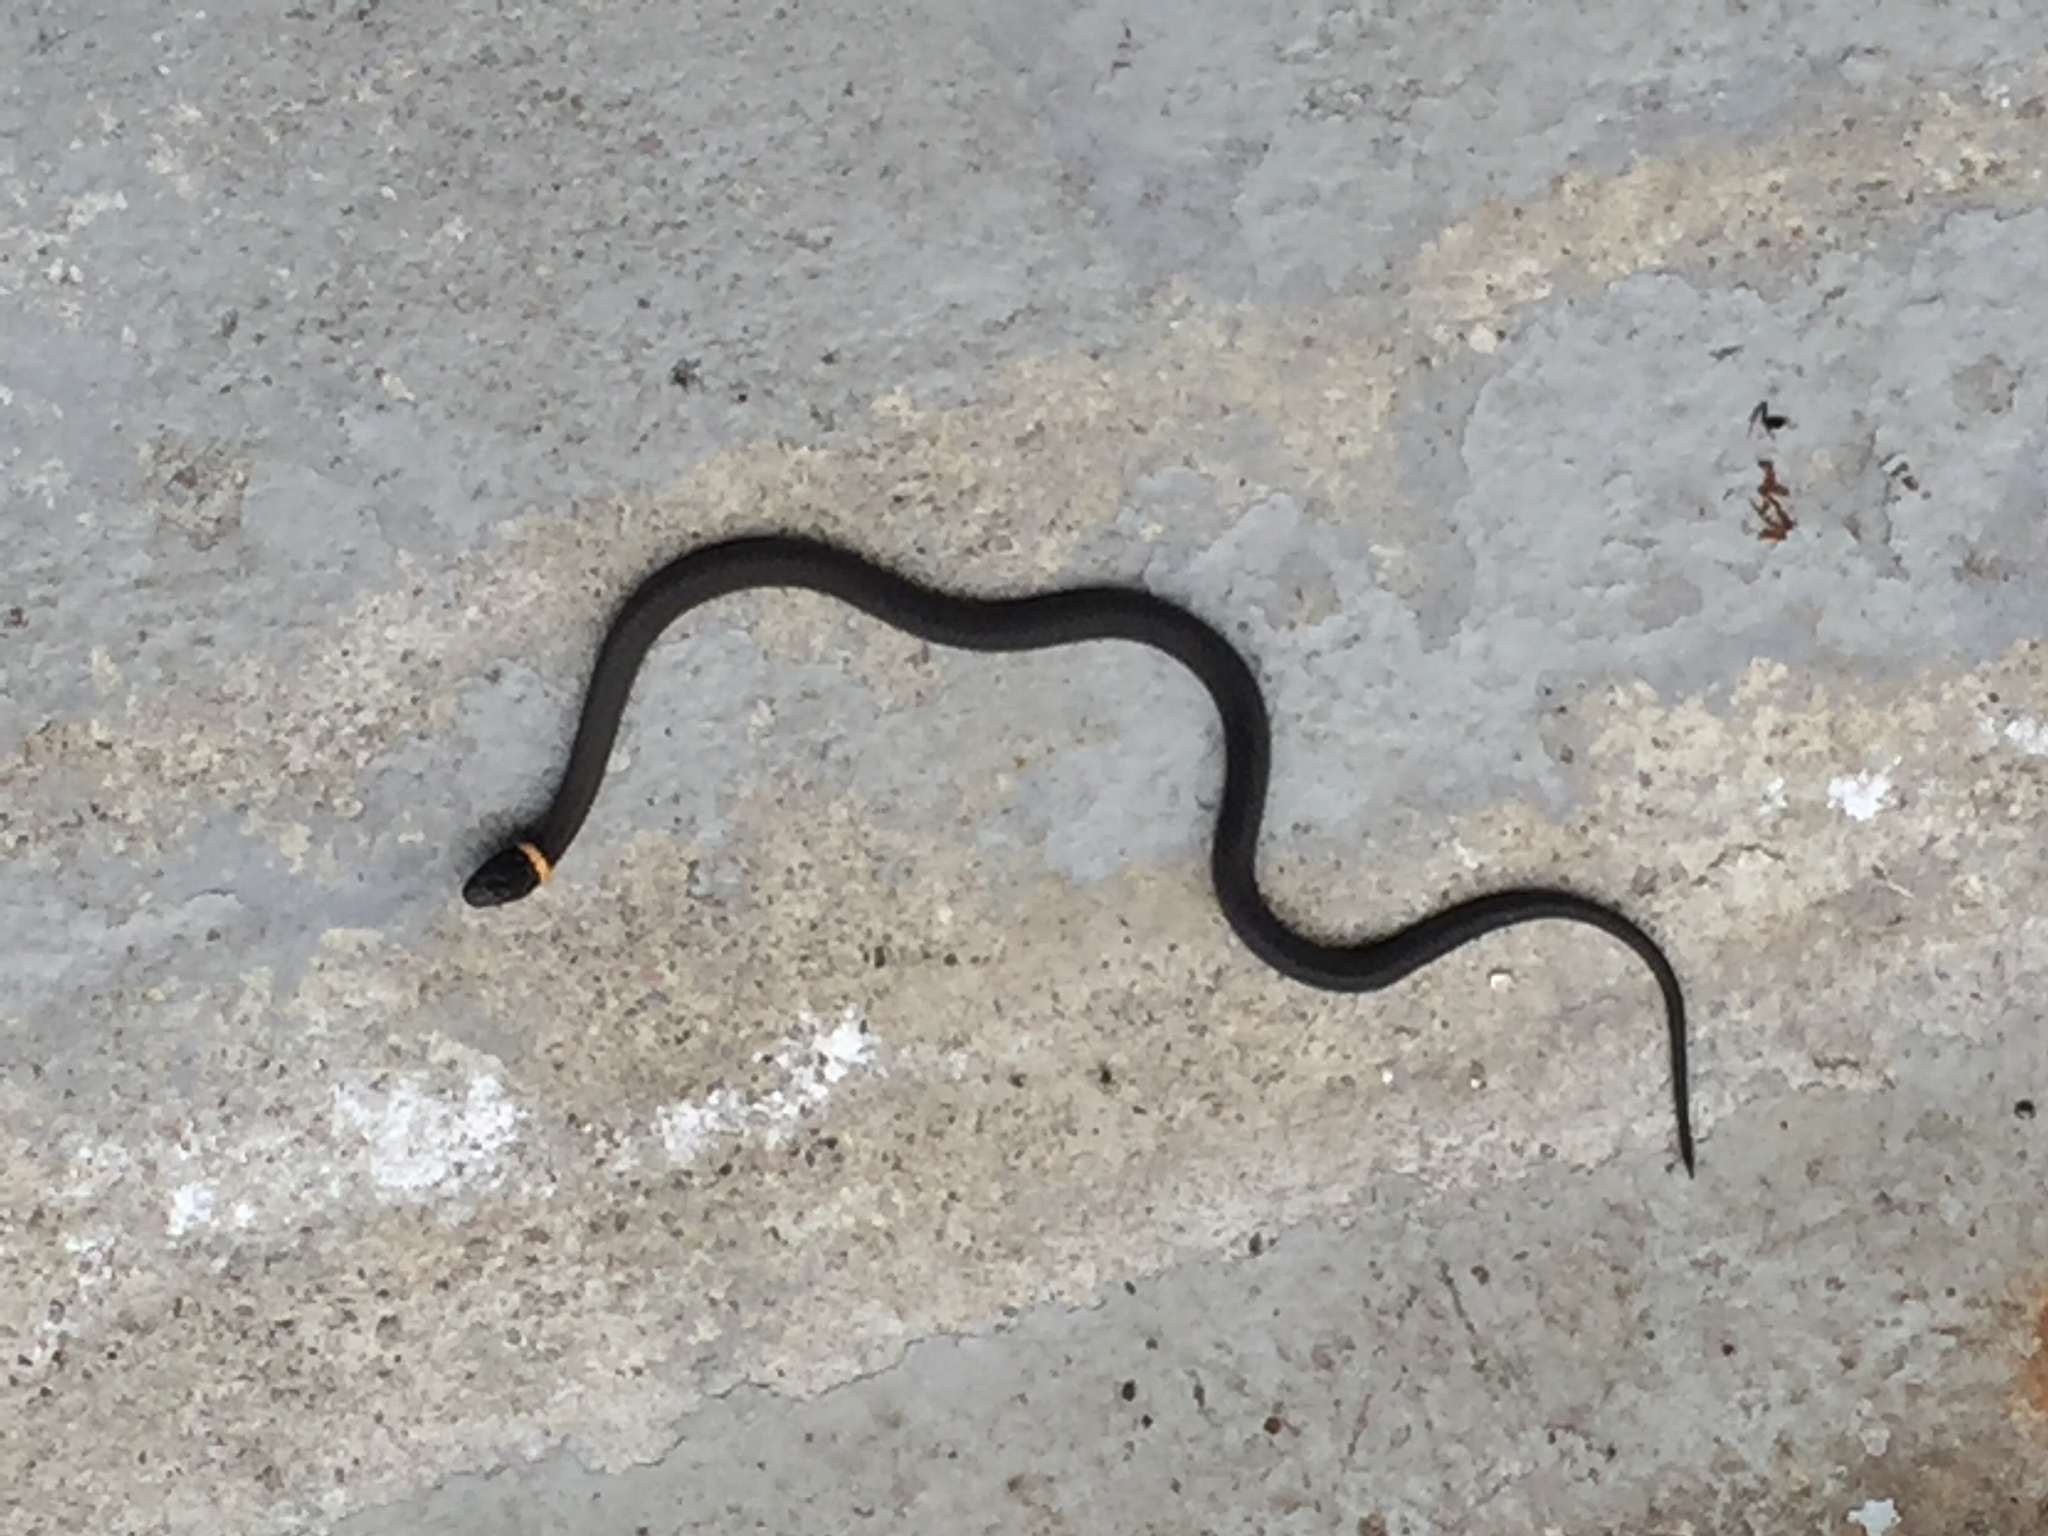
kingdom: Animalia
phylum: Chordata
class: Squamata
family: Colubridae
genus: Diadophis
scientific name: Diadophis punctatus
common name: Ringneck snake
